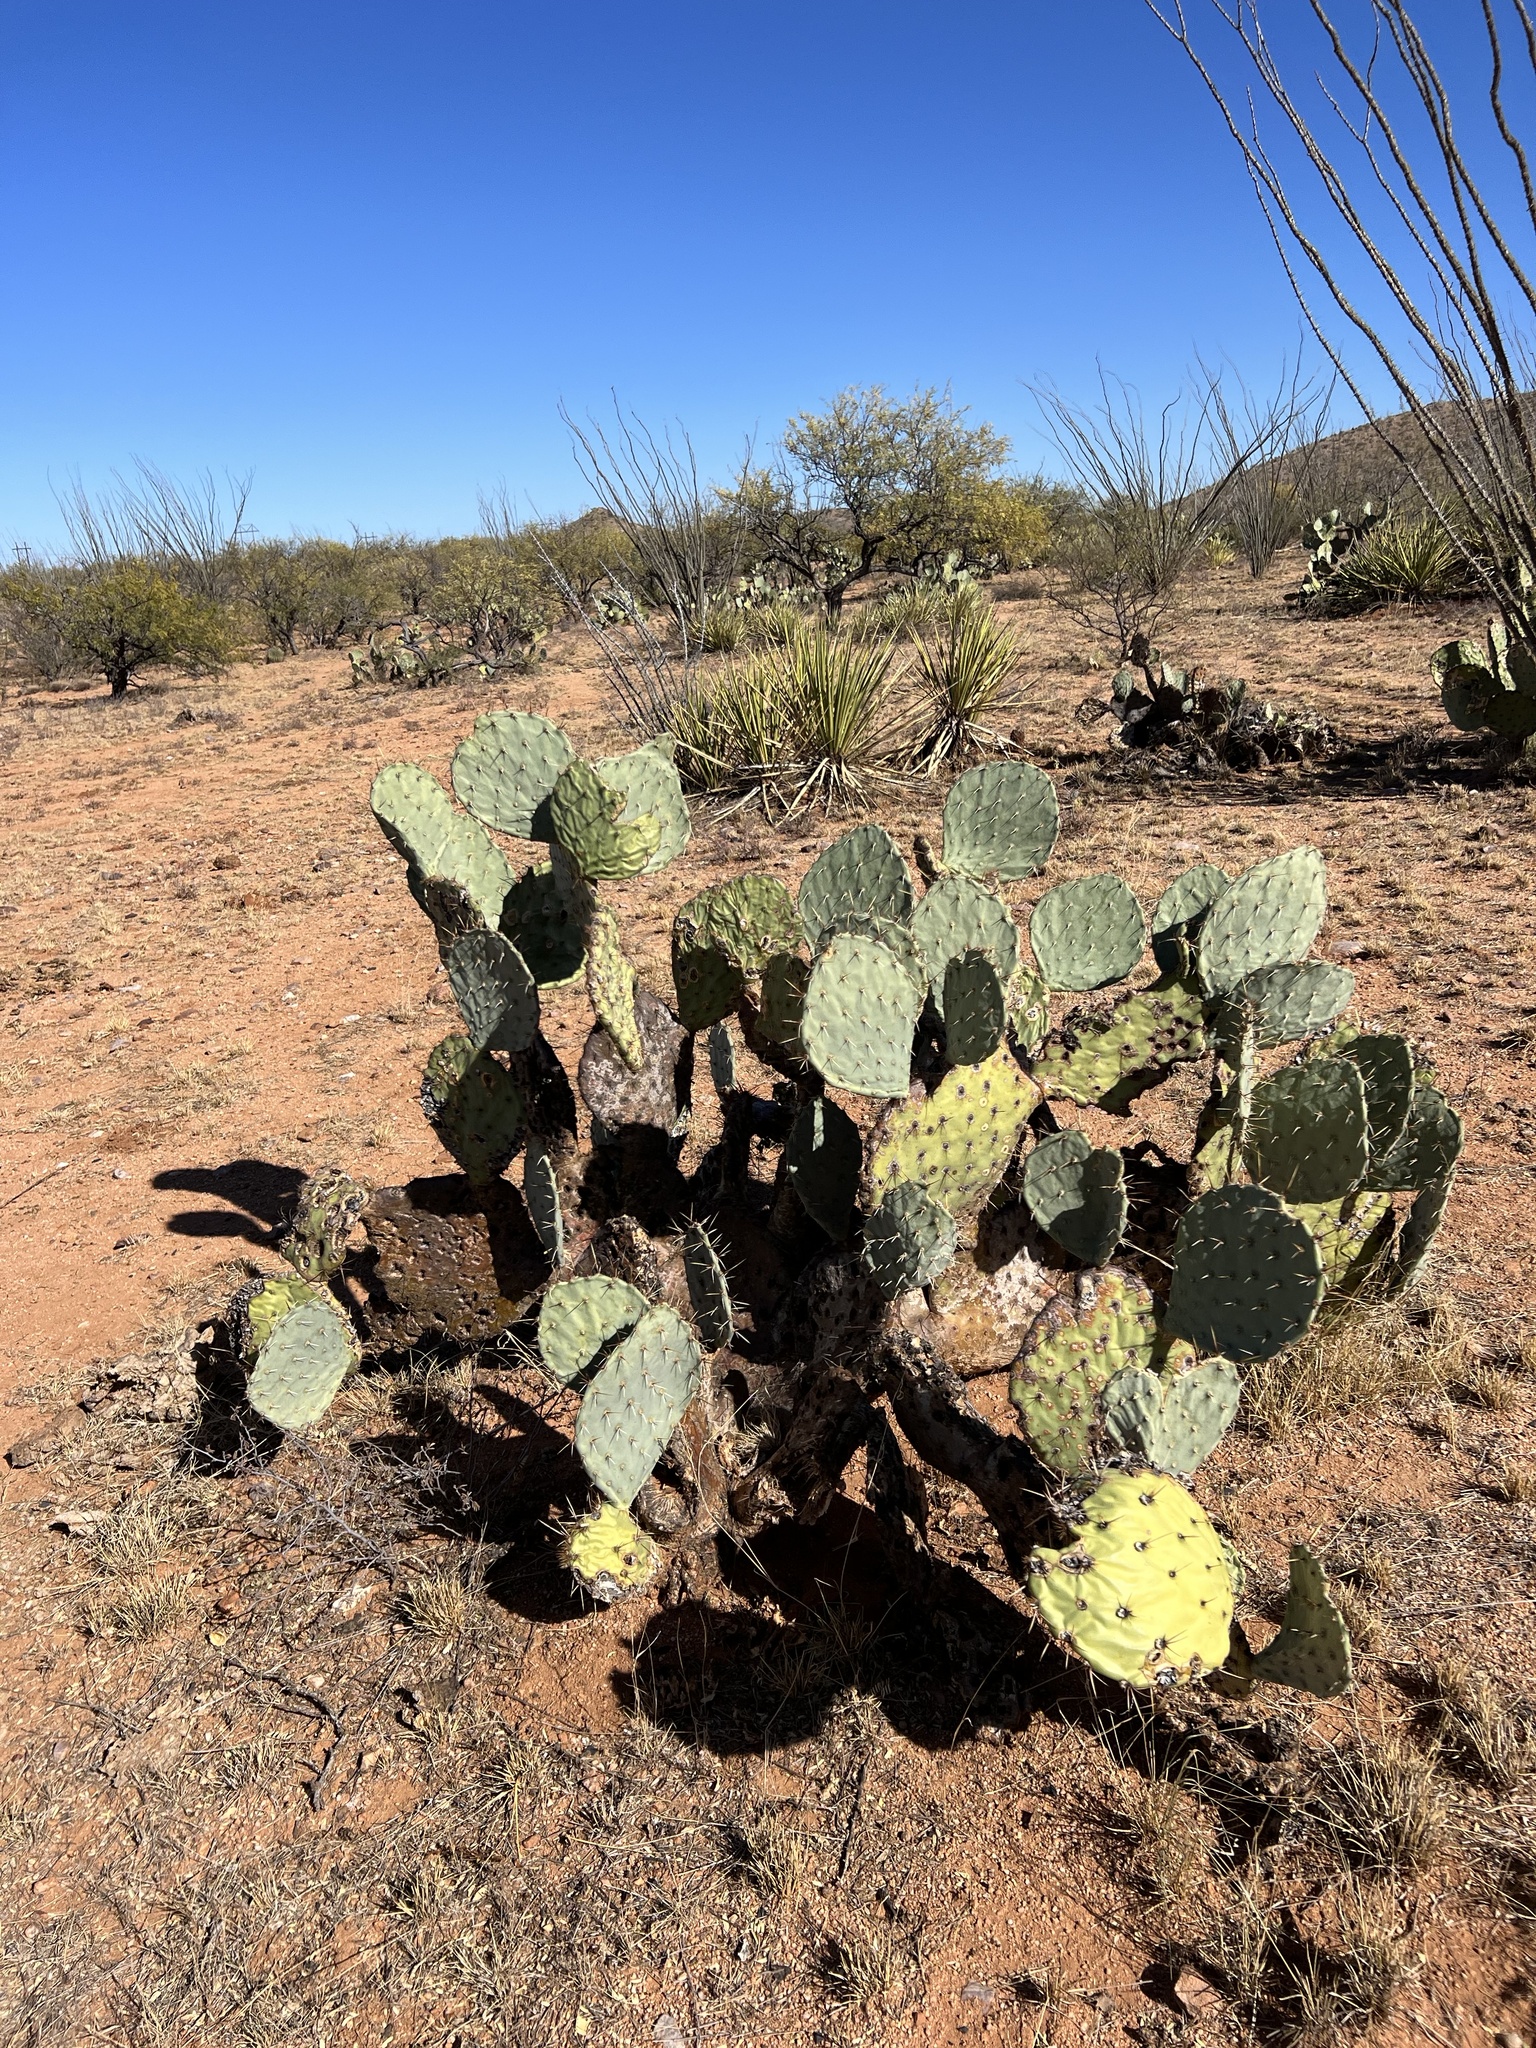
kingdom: Plantae
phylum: Tracheophyta
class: Magnoliopsida
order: Caryophyllales
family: Cactaceae
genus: Opuntia
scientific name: Opuntia engelmannii
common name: Cactus-apple
